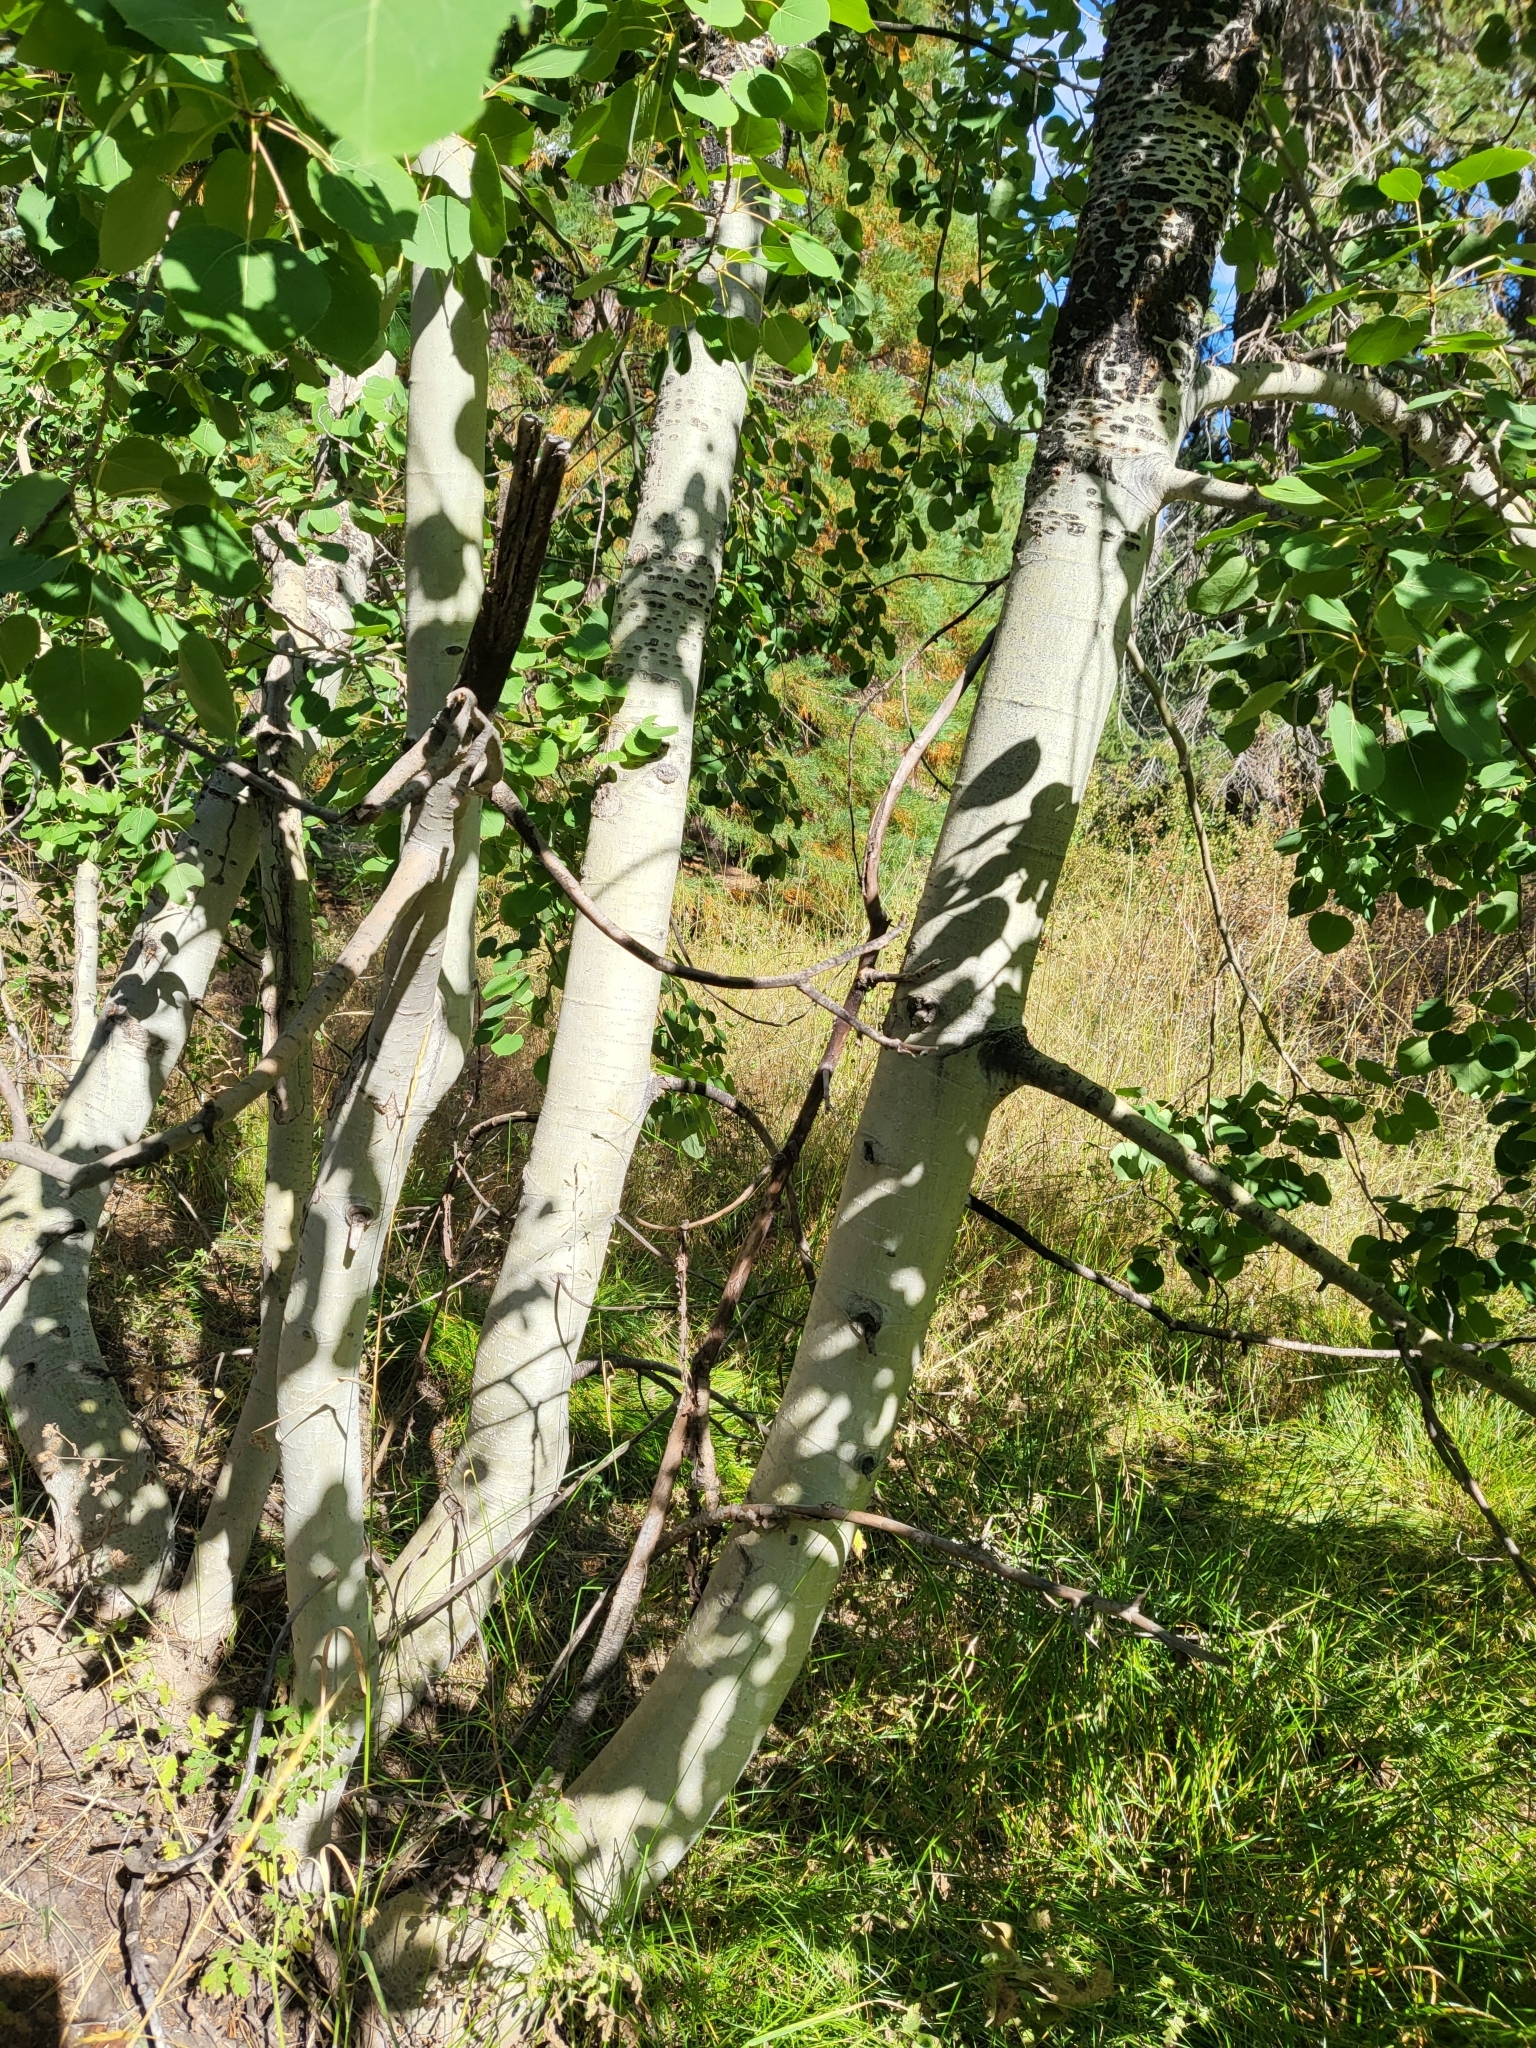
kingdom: Plantae
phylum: Tracheophyta
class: Magnoliopsida
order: Malpighiales
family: Salicaceae
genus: Populus
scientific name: Populus tremuloides
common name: Quaking aspen
